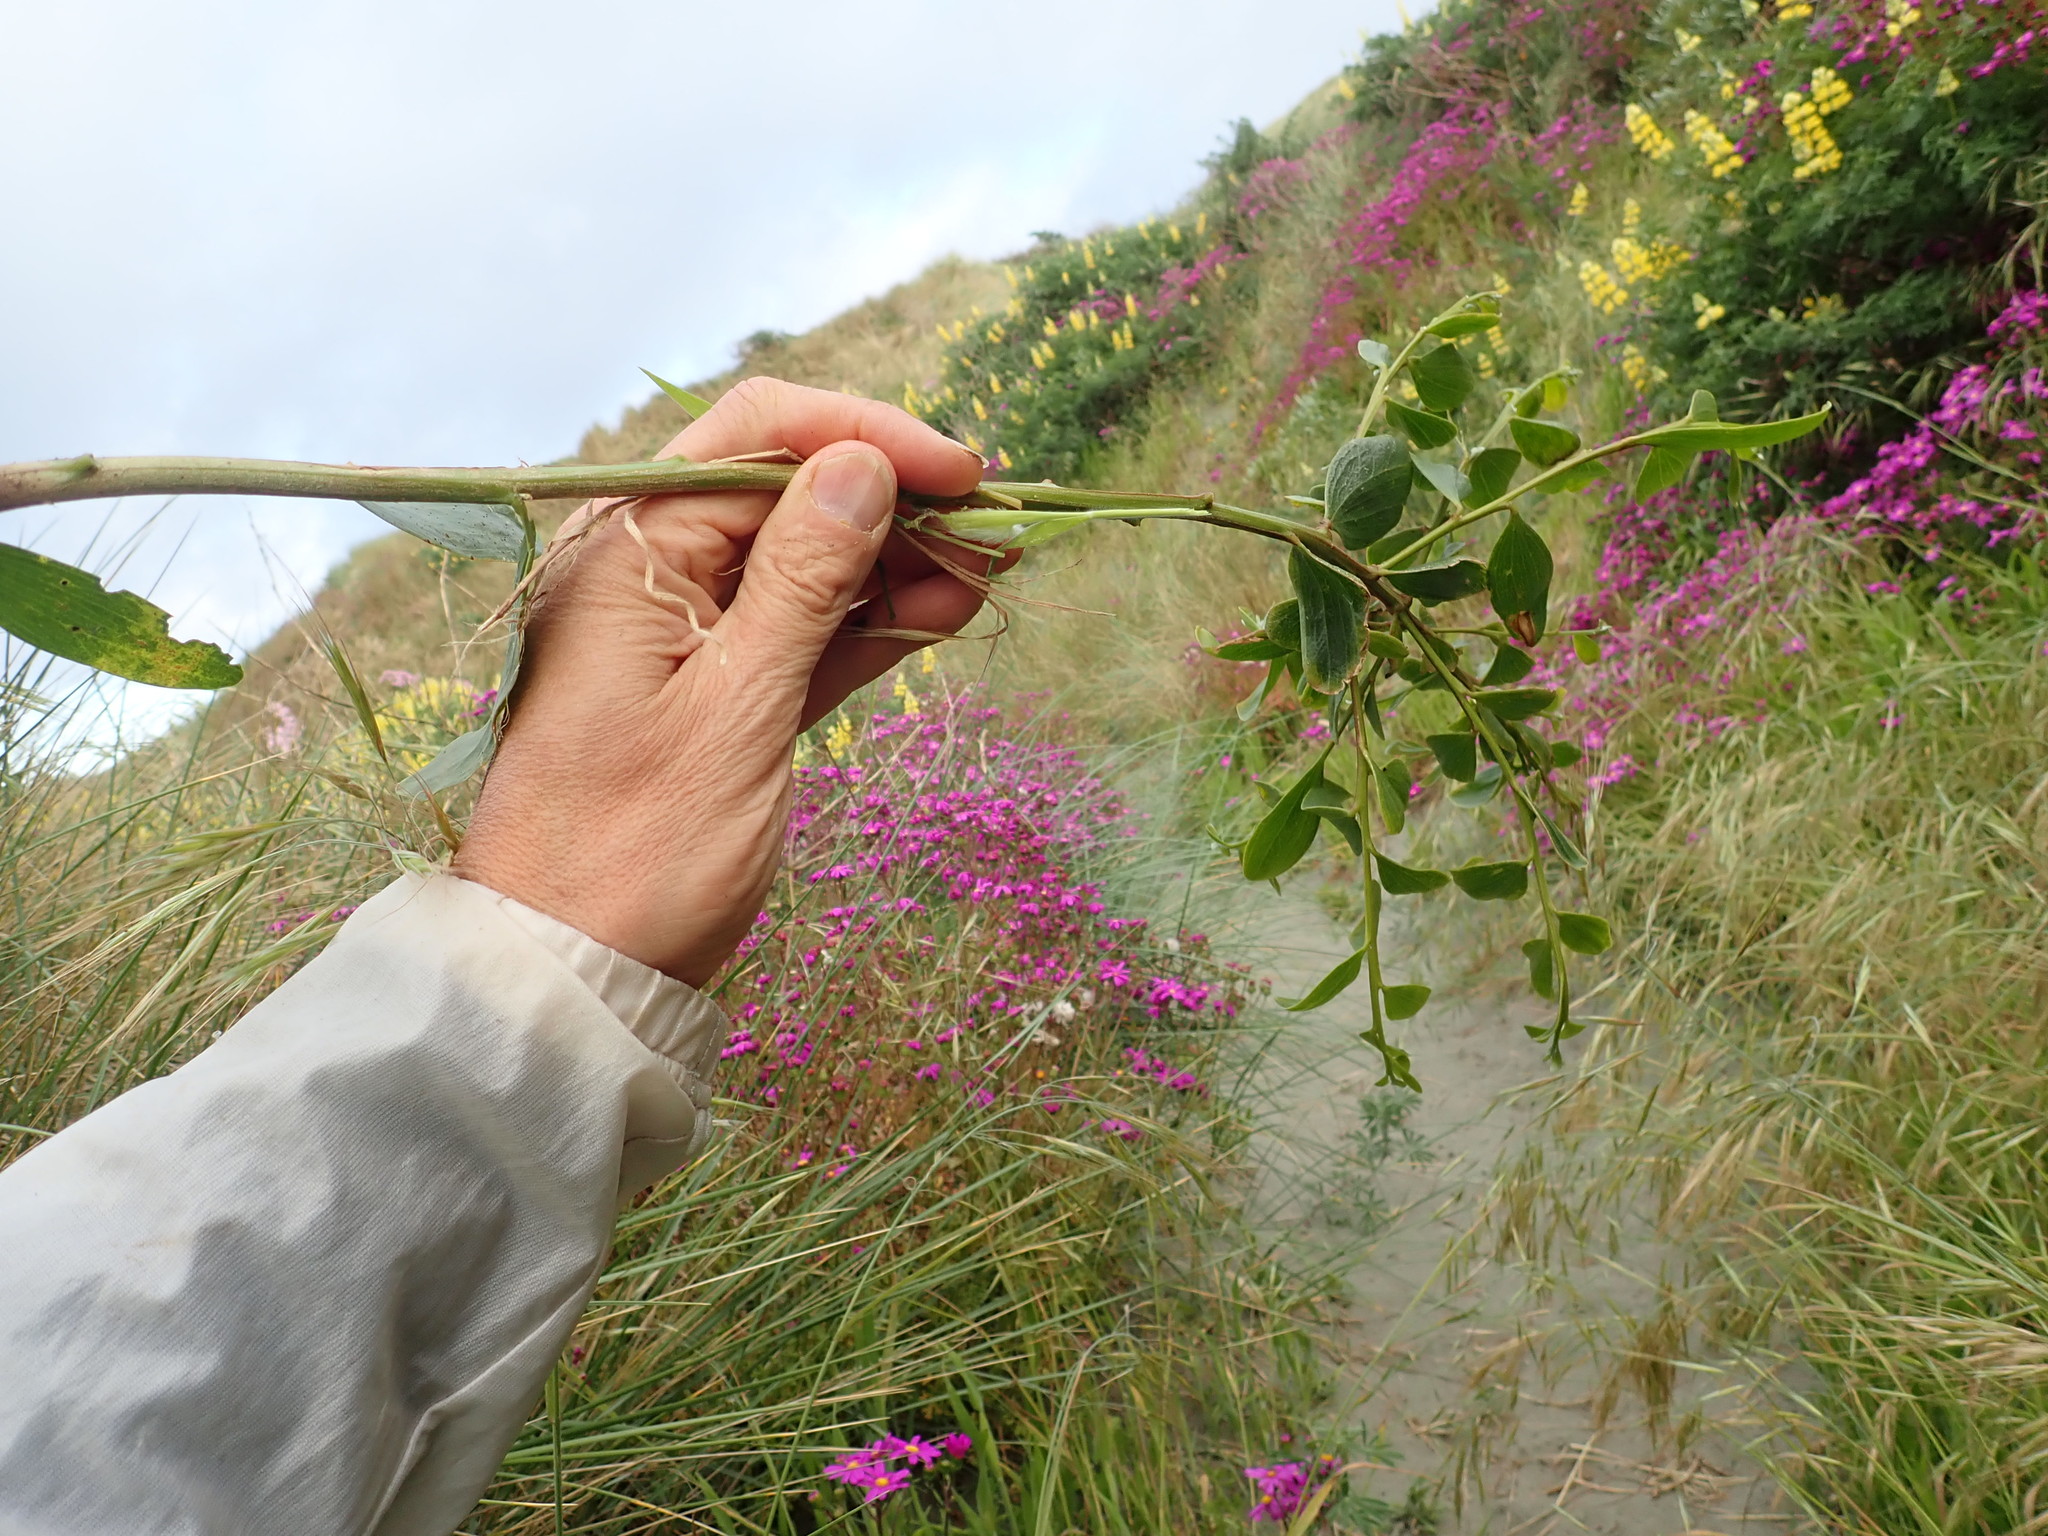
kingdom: Plantae
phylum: Tracheophyta
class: Magnoliopsida
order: Fabales
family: Fabaceae
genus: Acacia
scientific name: Acacia longifolia
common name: Sydney golden wattle
